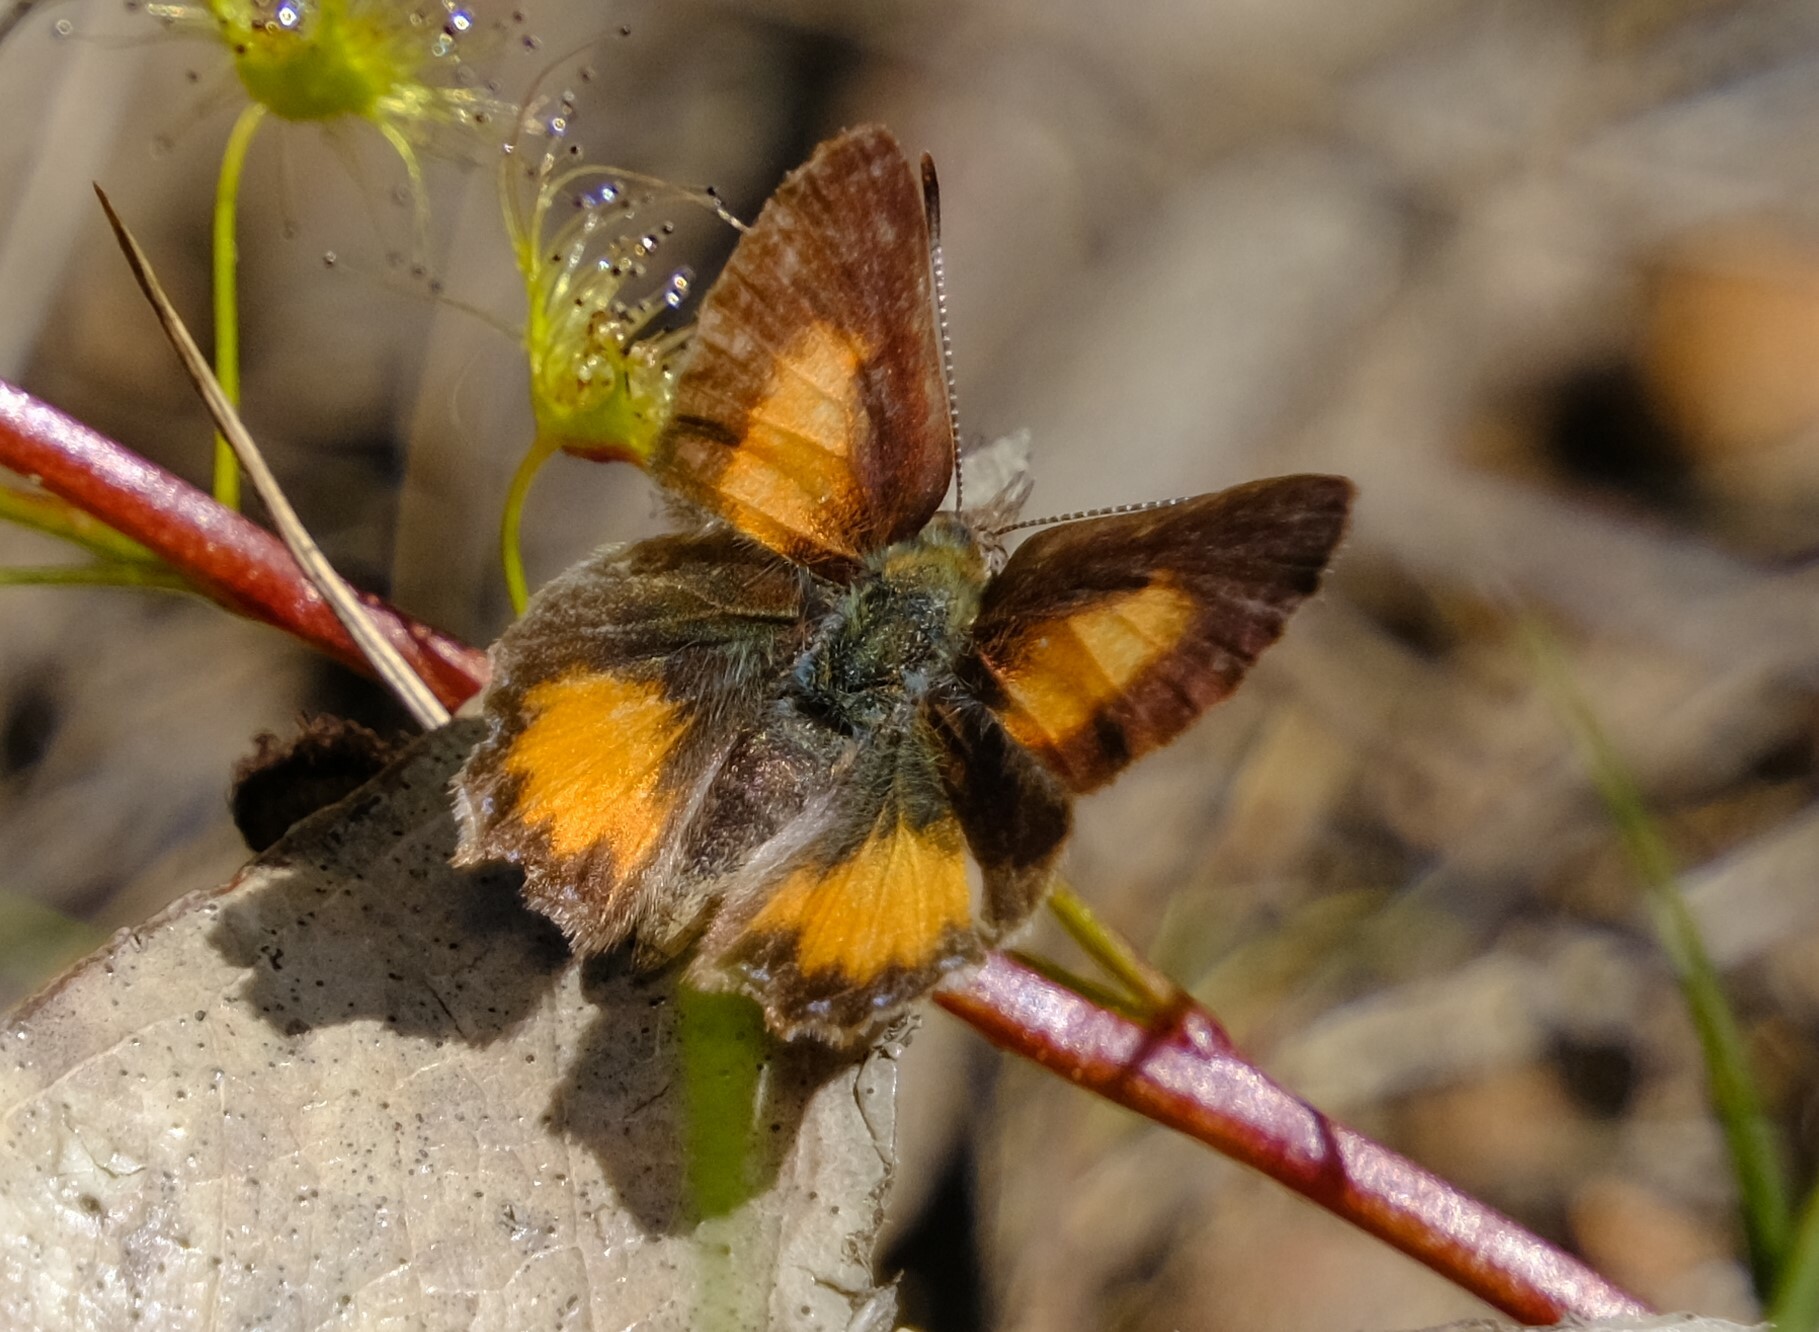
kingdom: Animalia
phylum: Arthropoda
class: Insecta
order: Lepidoptera
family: Lycaenidae
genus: Paralucia
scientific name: Paralucia aurifer
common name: Bright copper
